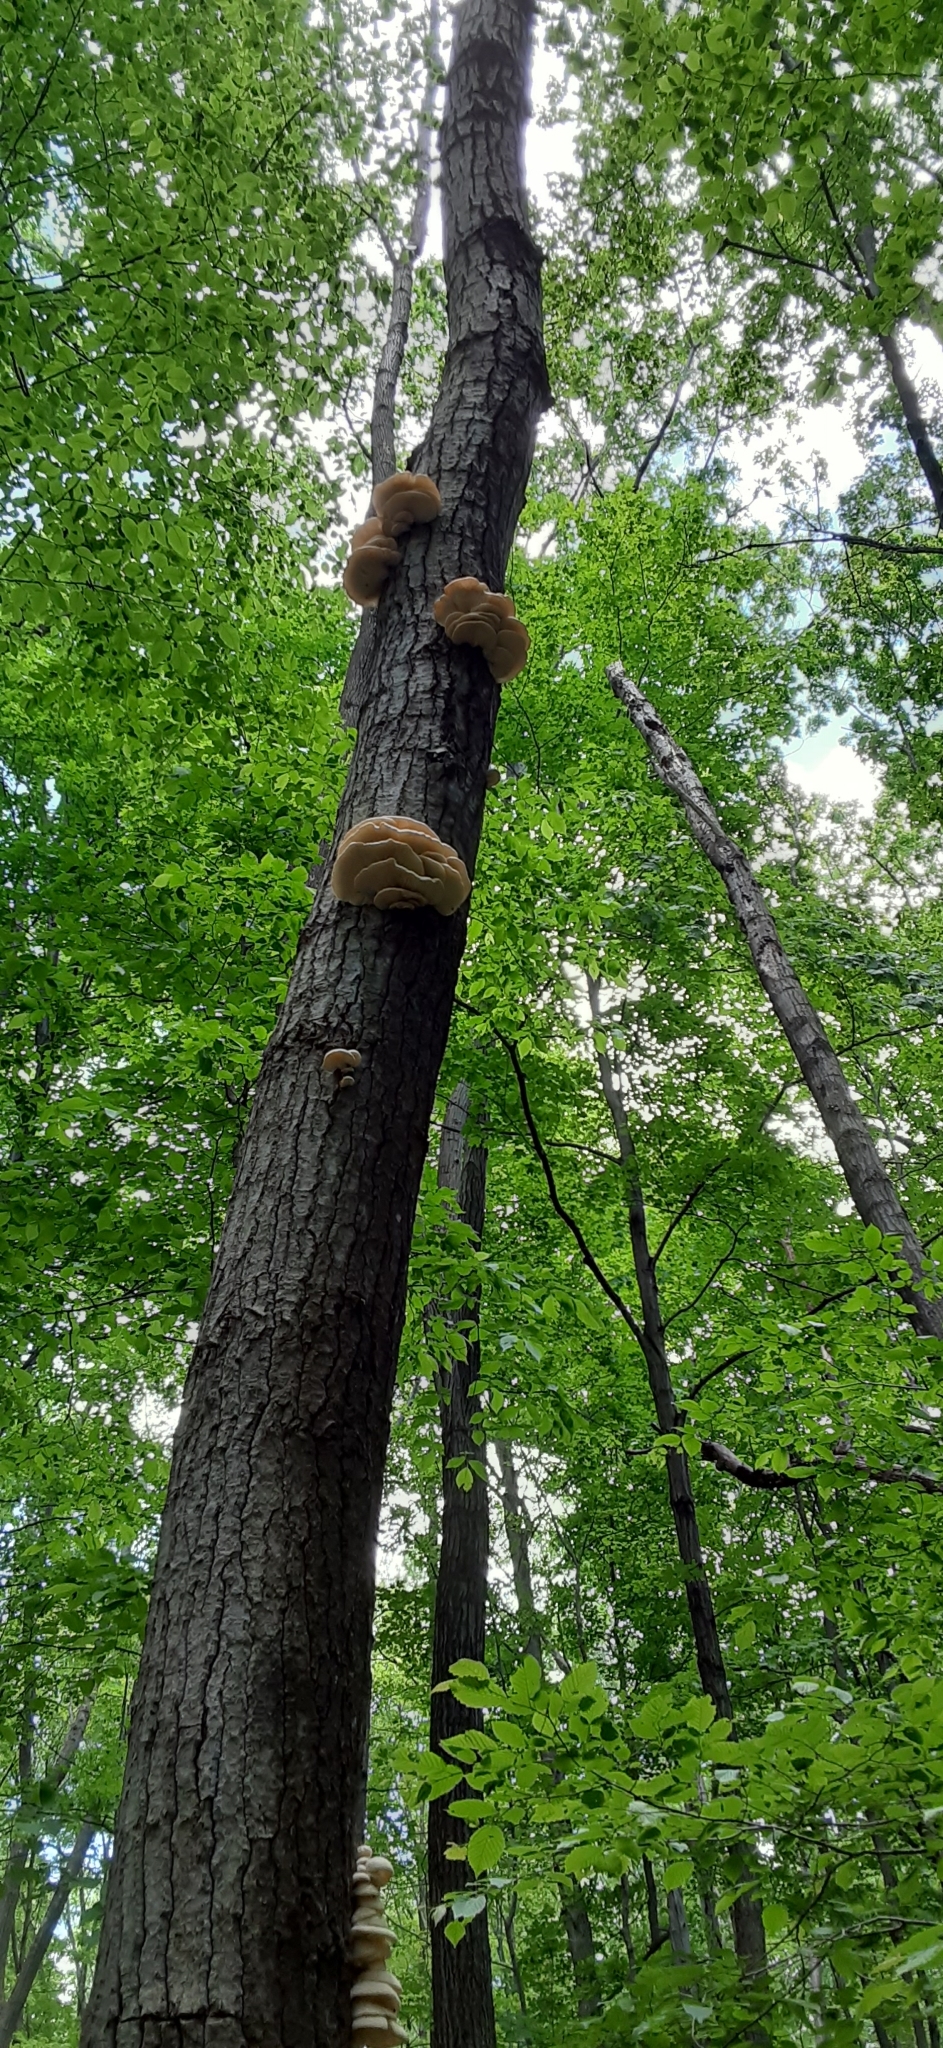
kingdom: Fungi
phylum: Basidiomycota
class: Agaricomycetes
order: Agaricales
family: Pleurotaceae
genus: Pleurotus
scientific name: Pleurotus populinus
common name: Aspen oyster mushroom
